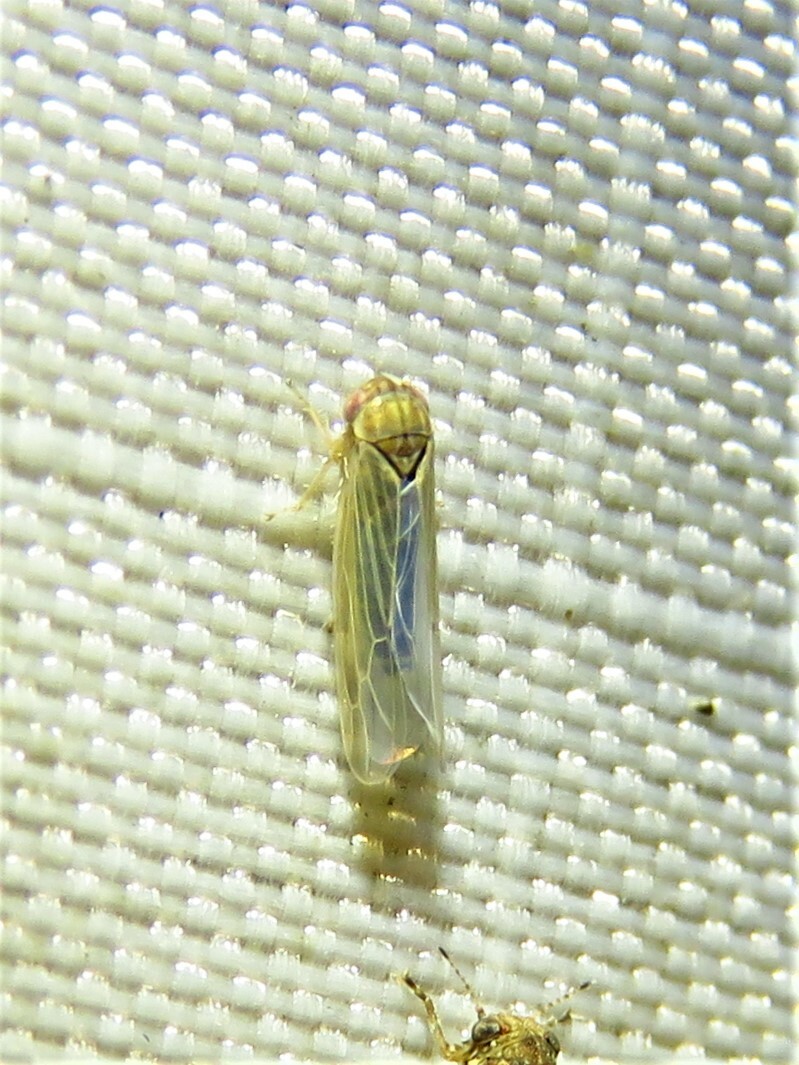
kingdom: Animalia
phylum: Arthropoda
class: Insecta
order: Hemiptera
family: Cicadellidae
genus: Balclutha
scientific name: Balclutha neglecta
